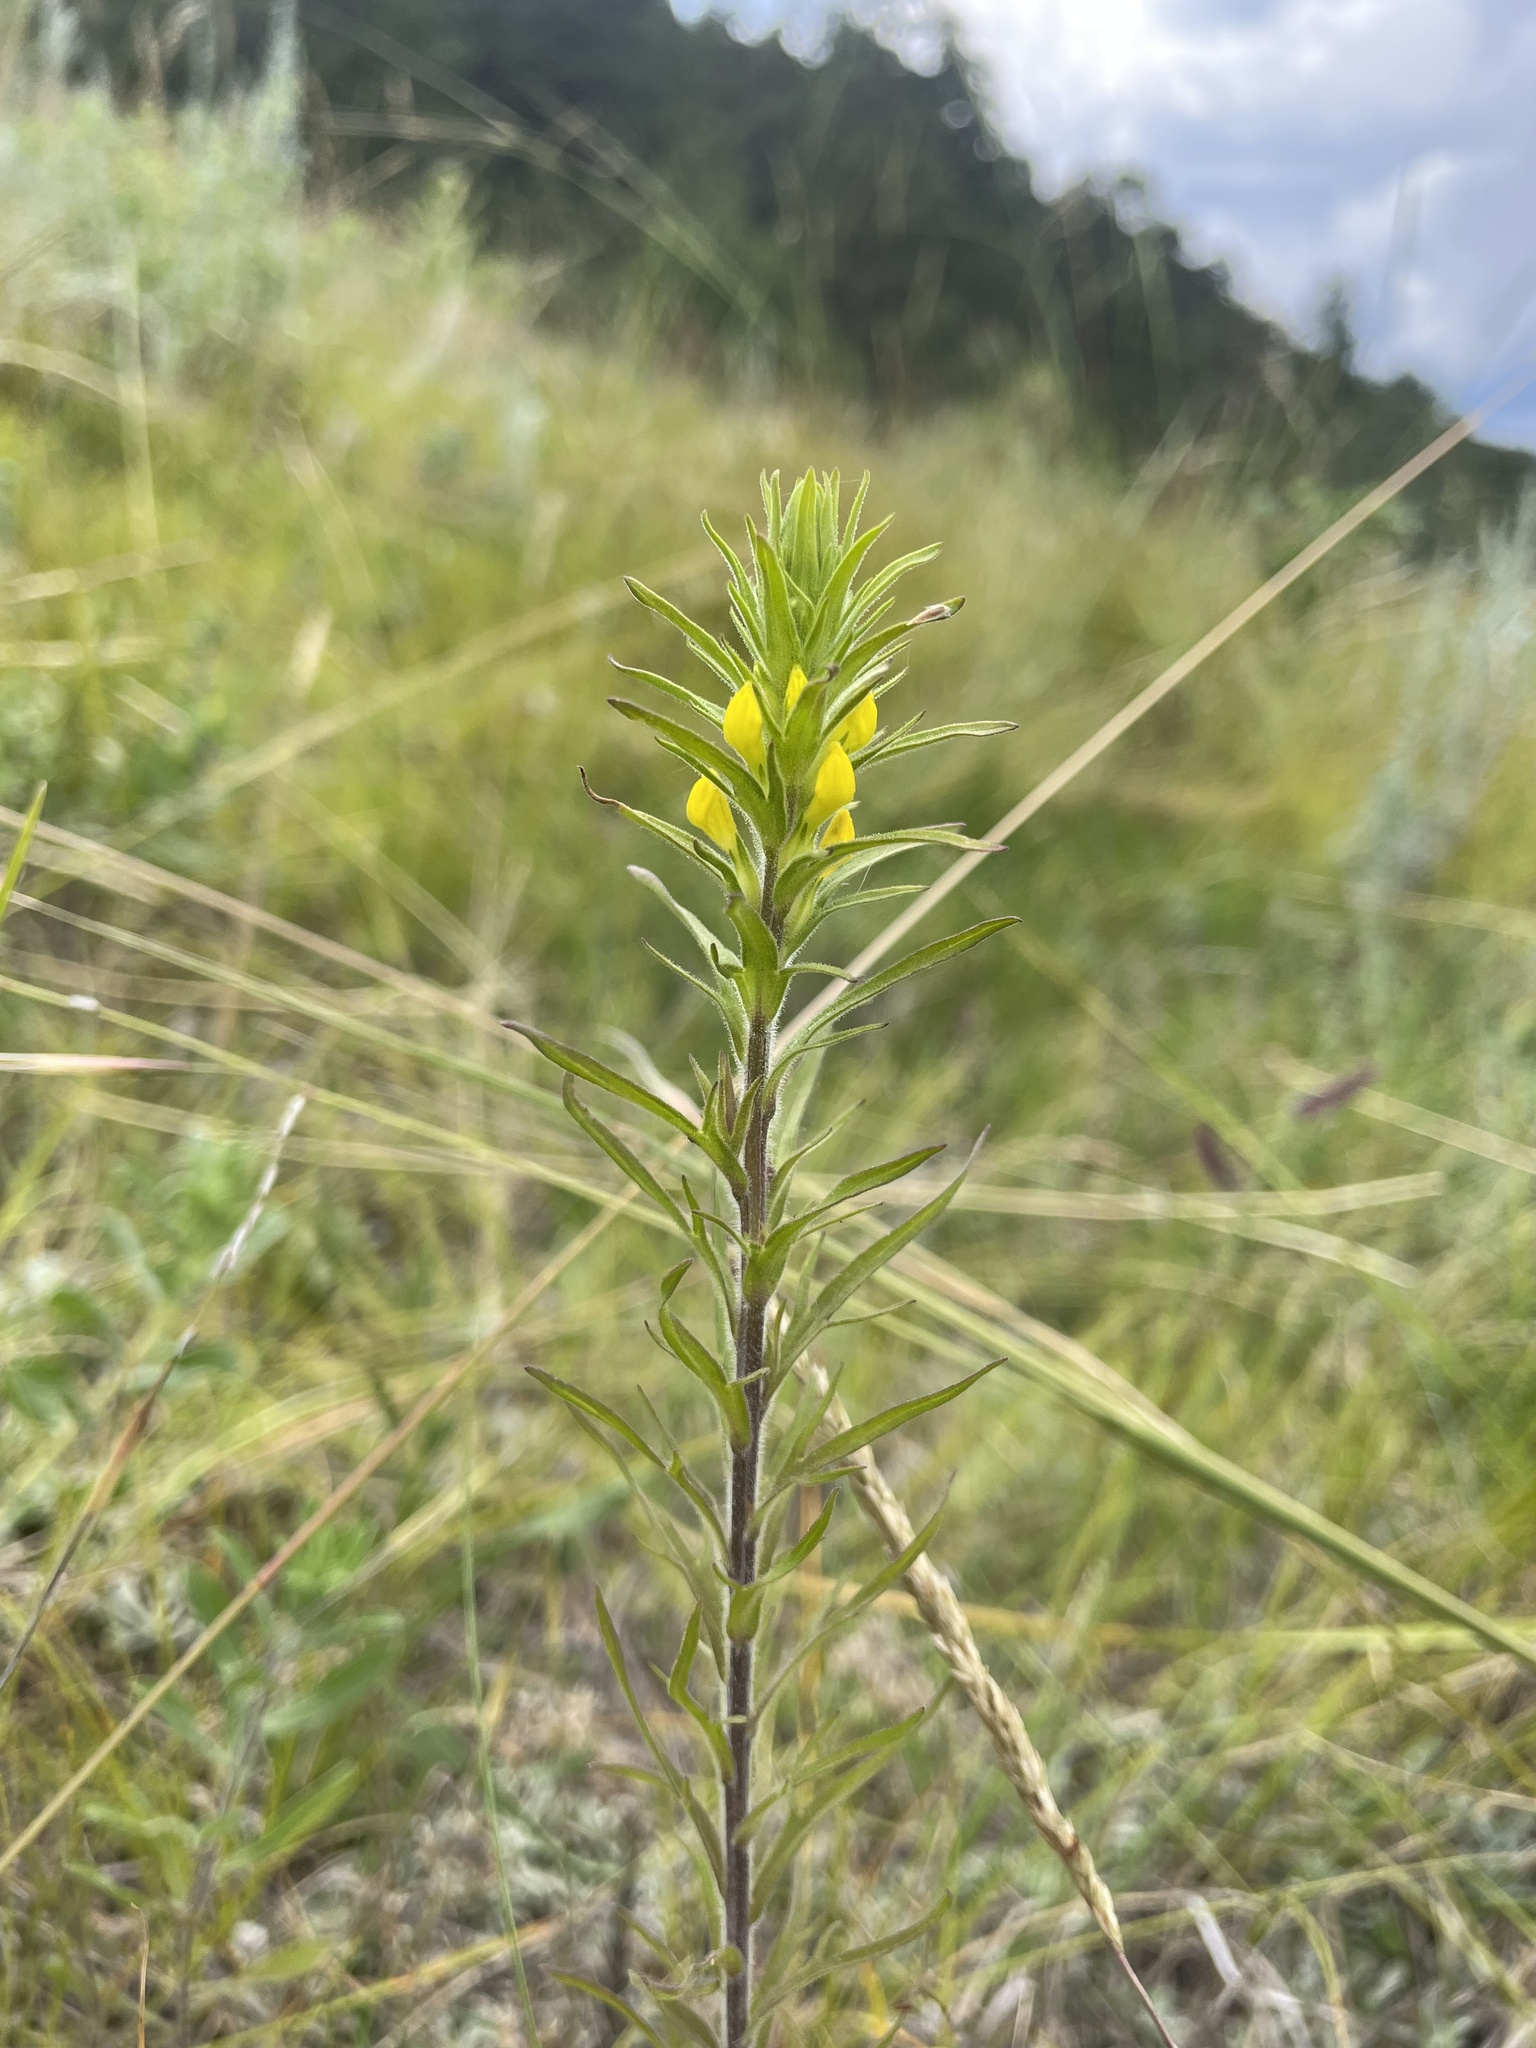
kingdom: Plantae
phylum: Tracheophyta
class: Magnoliopsida
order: Lamiales
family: Orobanchaceae
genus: Orthocarpus
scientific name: Orthocarpus luteus
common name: Golden-tongue owl's-clover
